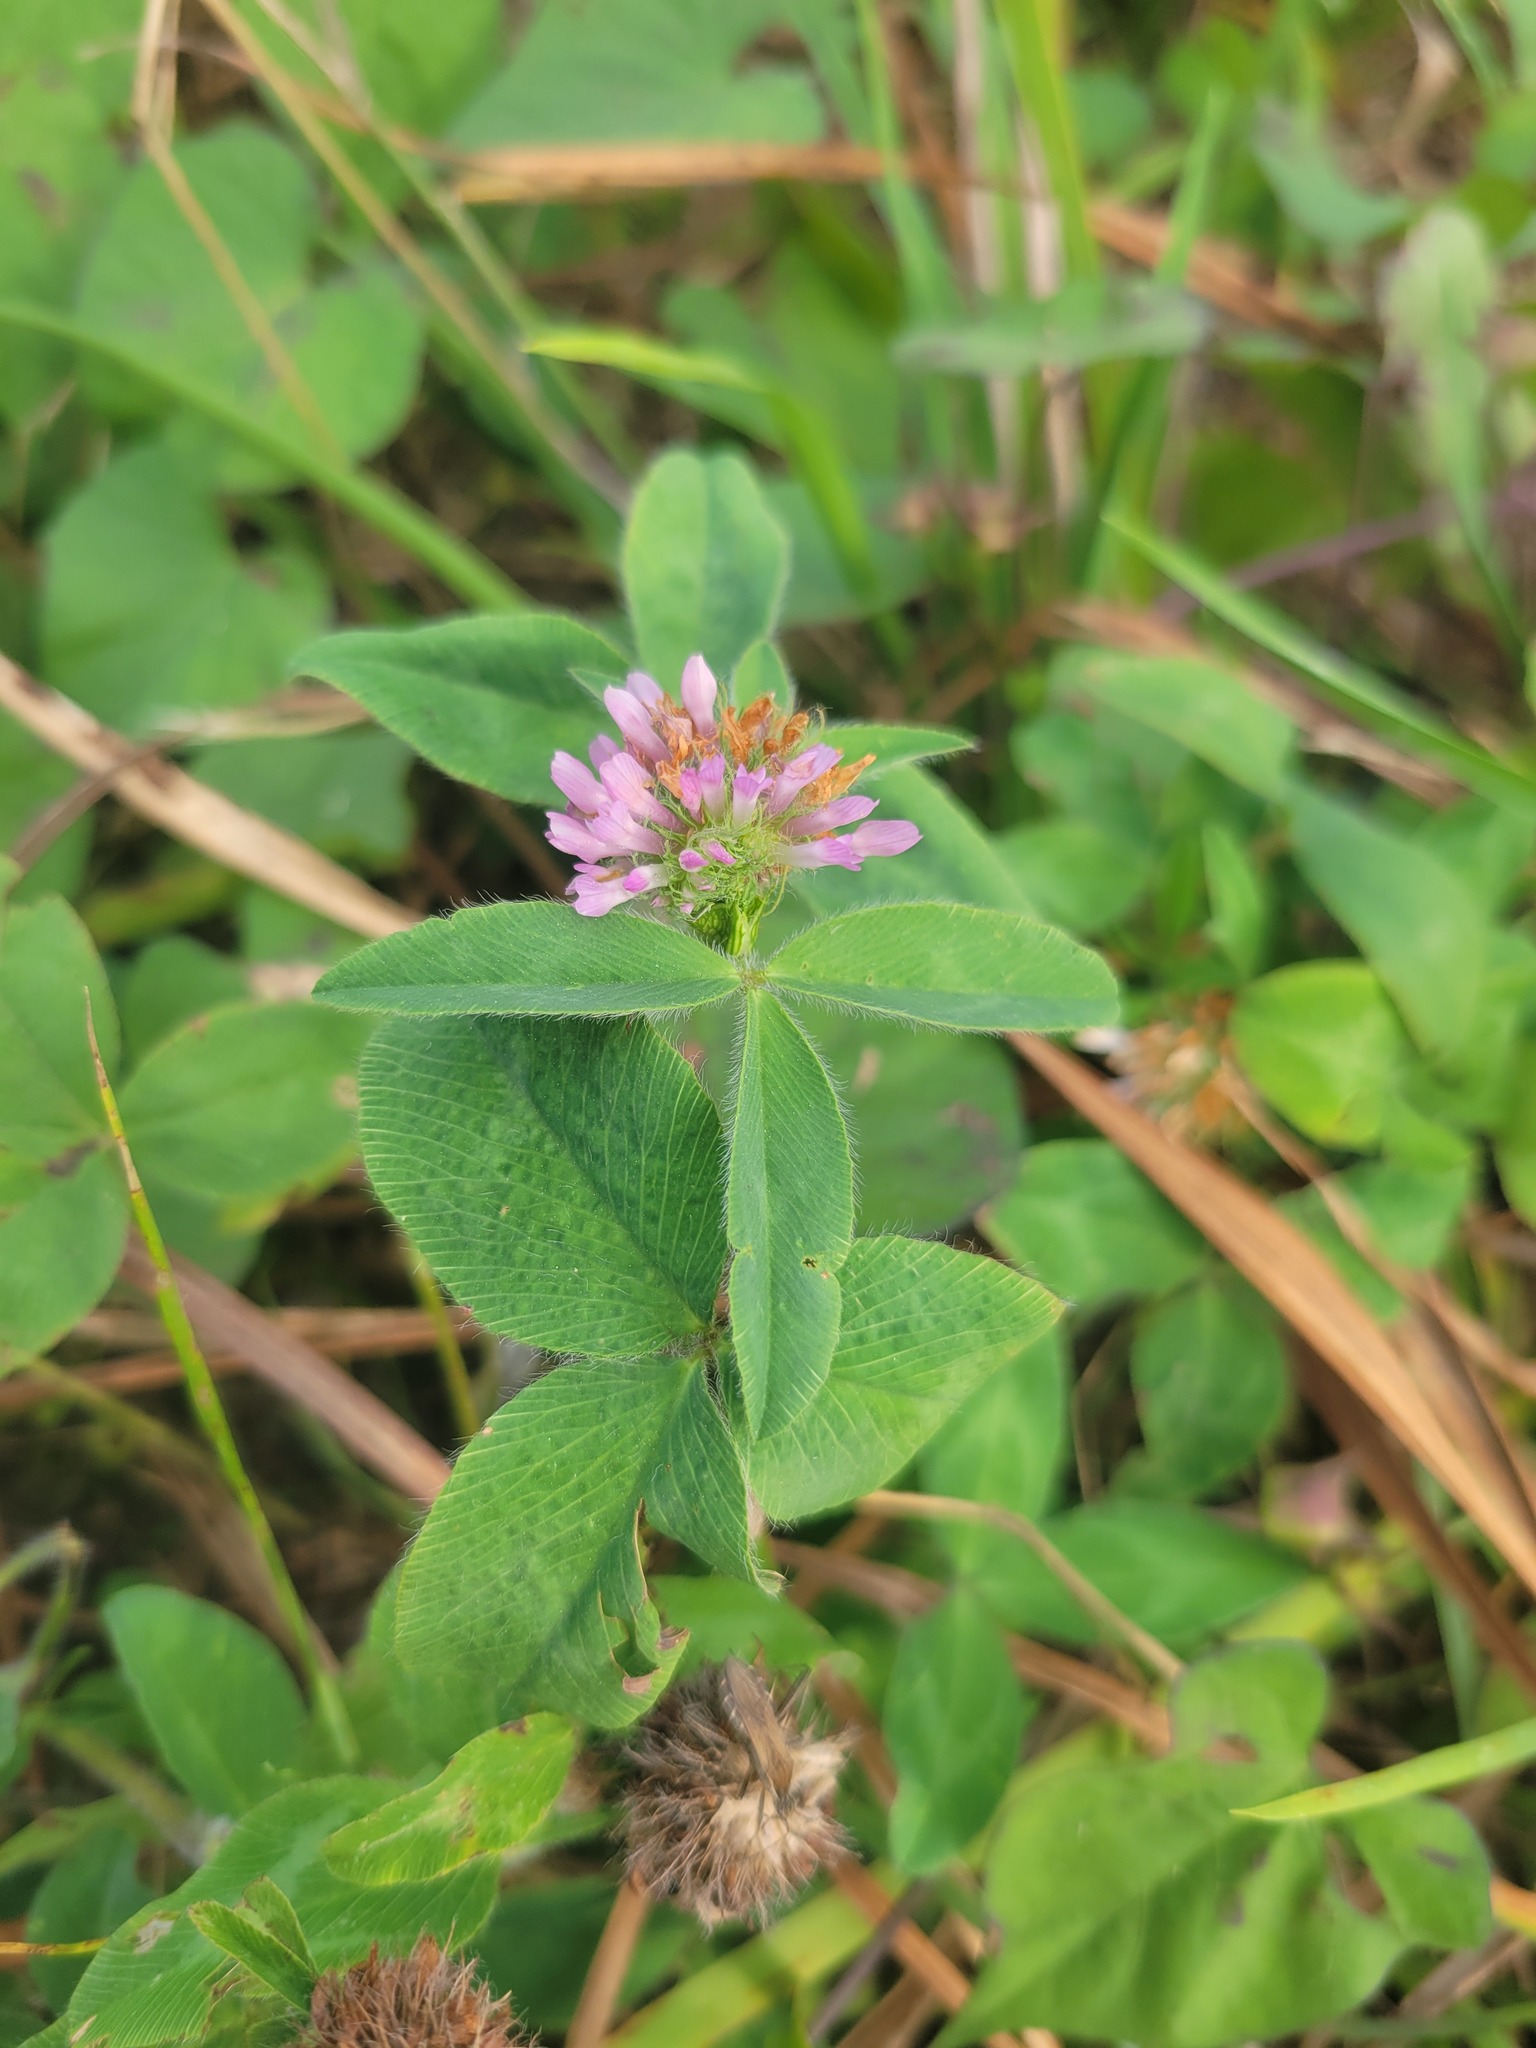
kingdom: Plantae
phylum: Tracheophyta
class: Magnoliopsida
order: Fabales
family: Fabaceae
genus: Trifolium
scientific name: Trifolium pratense
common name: Red clover
